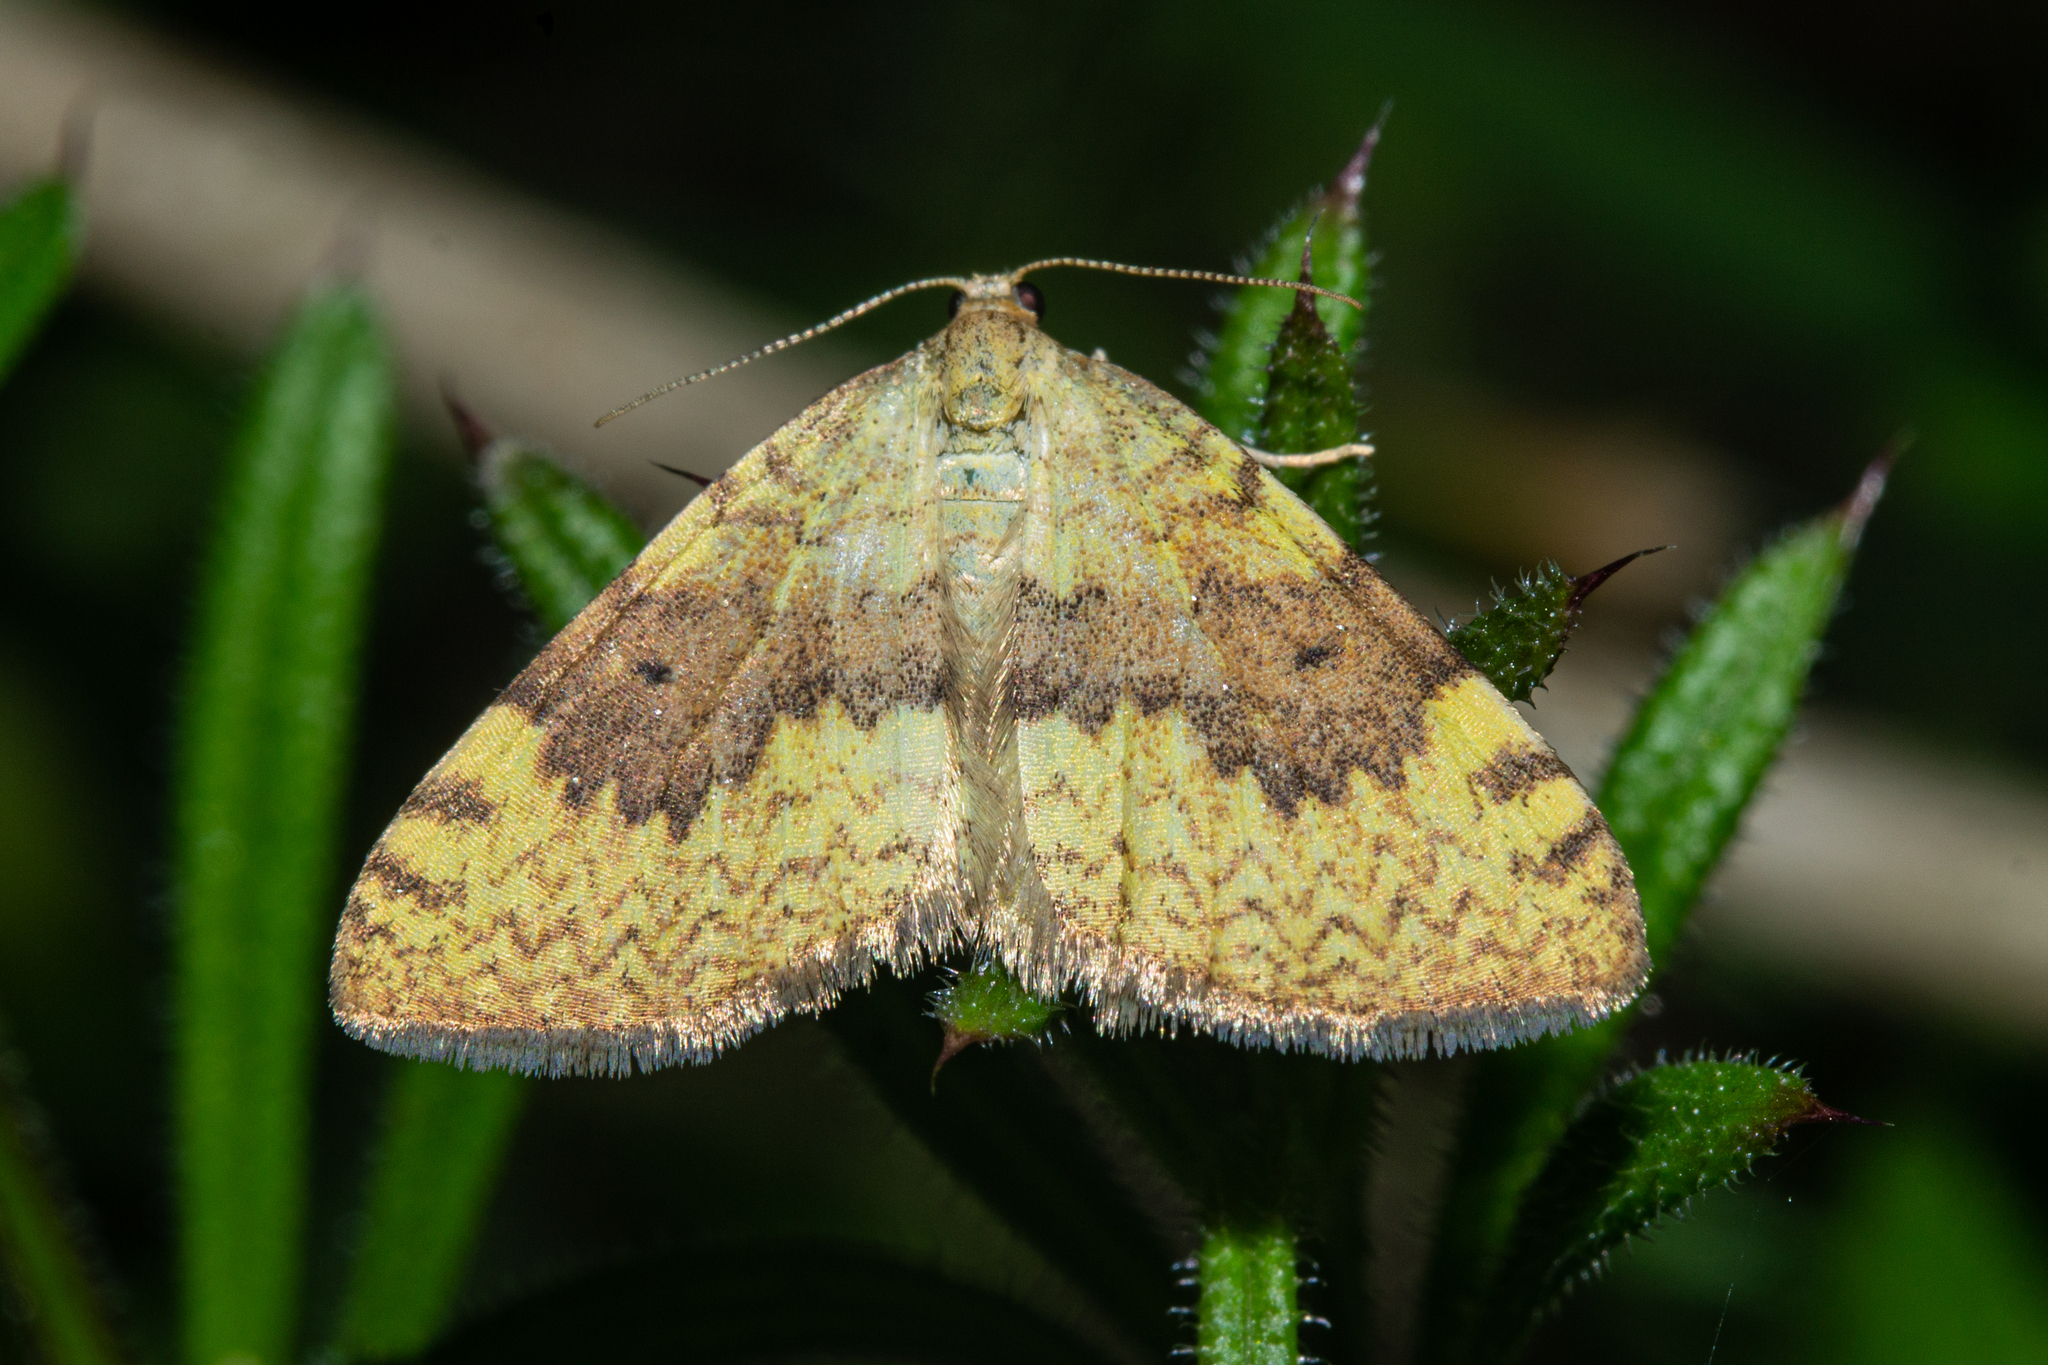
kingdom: Animalia
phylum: Arthropoda
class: Insecta
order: Lepidoptera
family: Geometridae
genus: Epiphryne
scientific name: Epiphryne undosata
